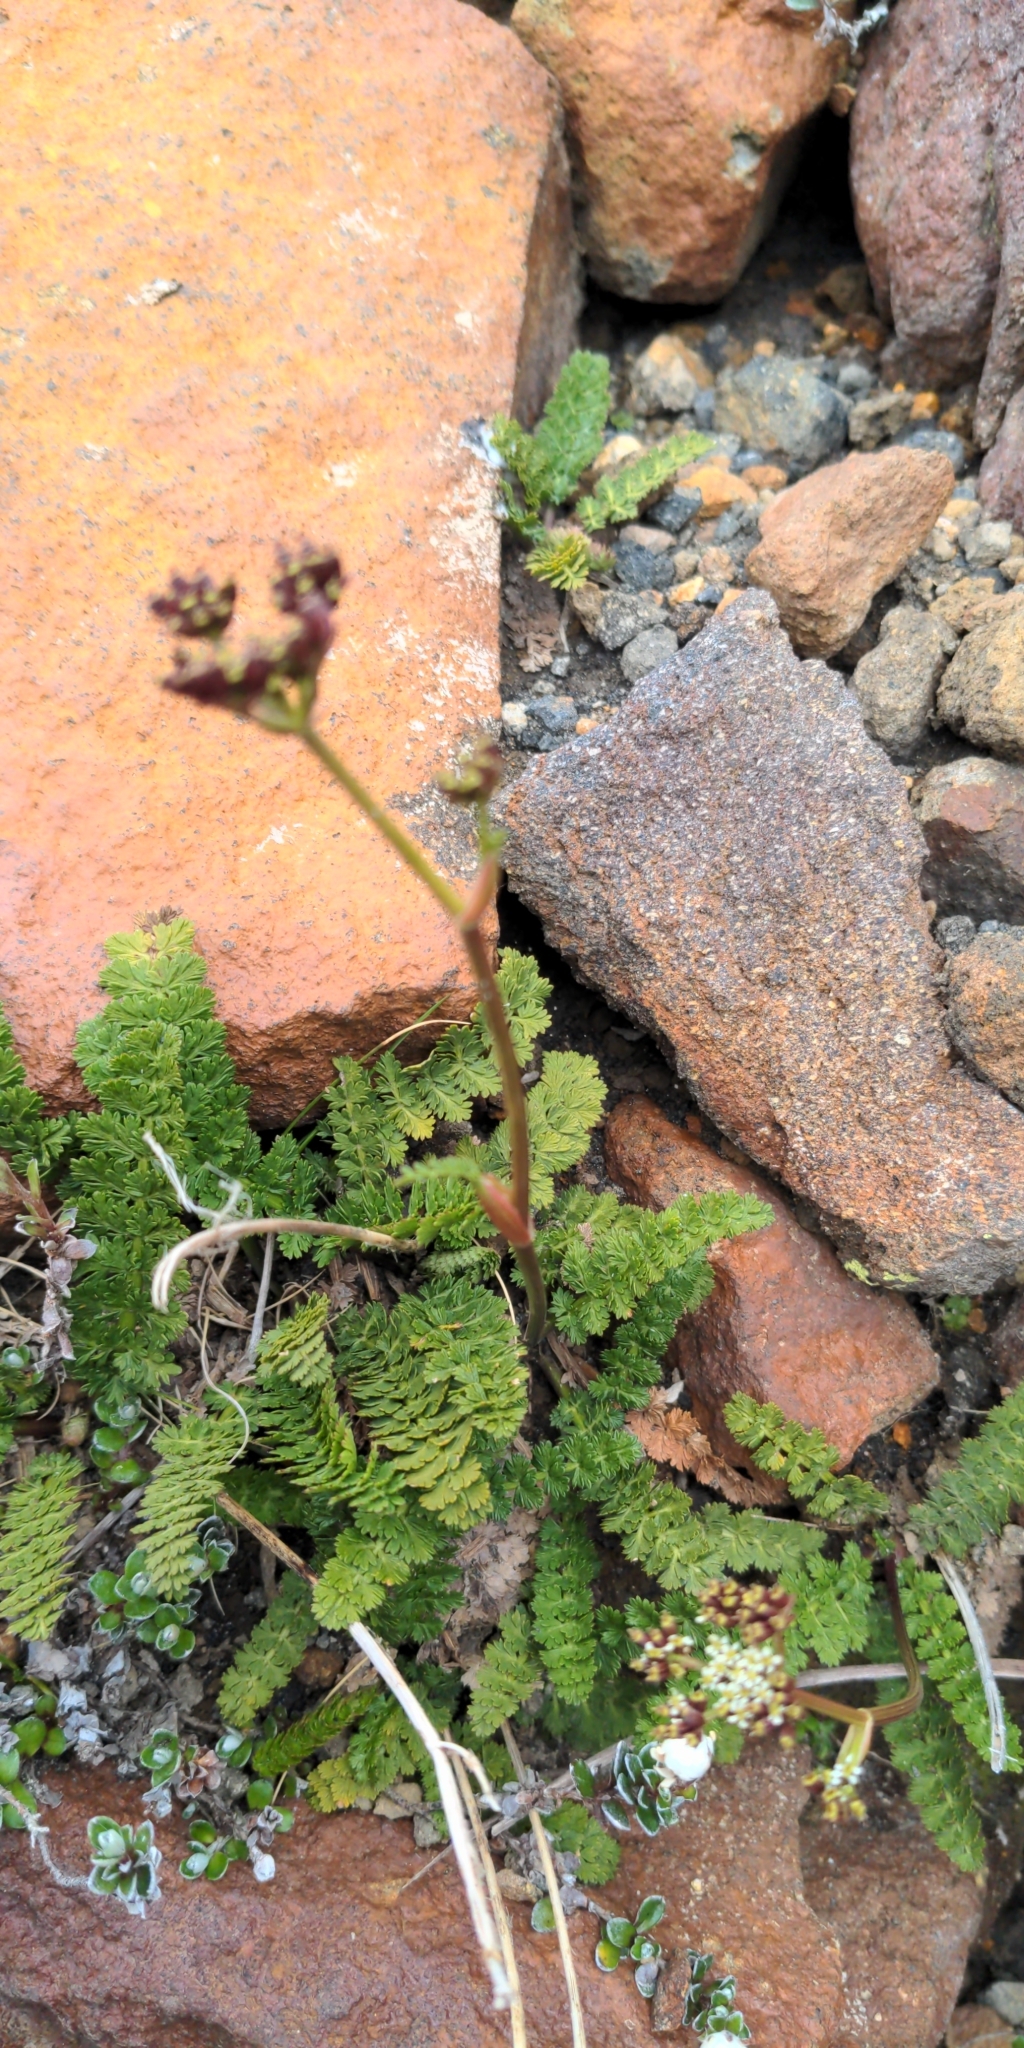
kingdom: Plantae
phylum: Tracheophyta
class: Magnoliopsida
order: Apiales
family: Apiaceae
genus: Anisotome
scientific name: Anisotome aromatica
